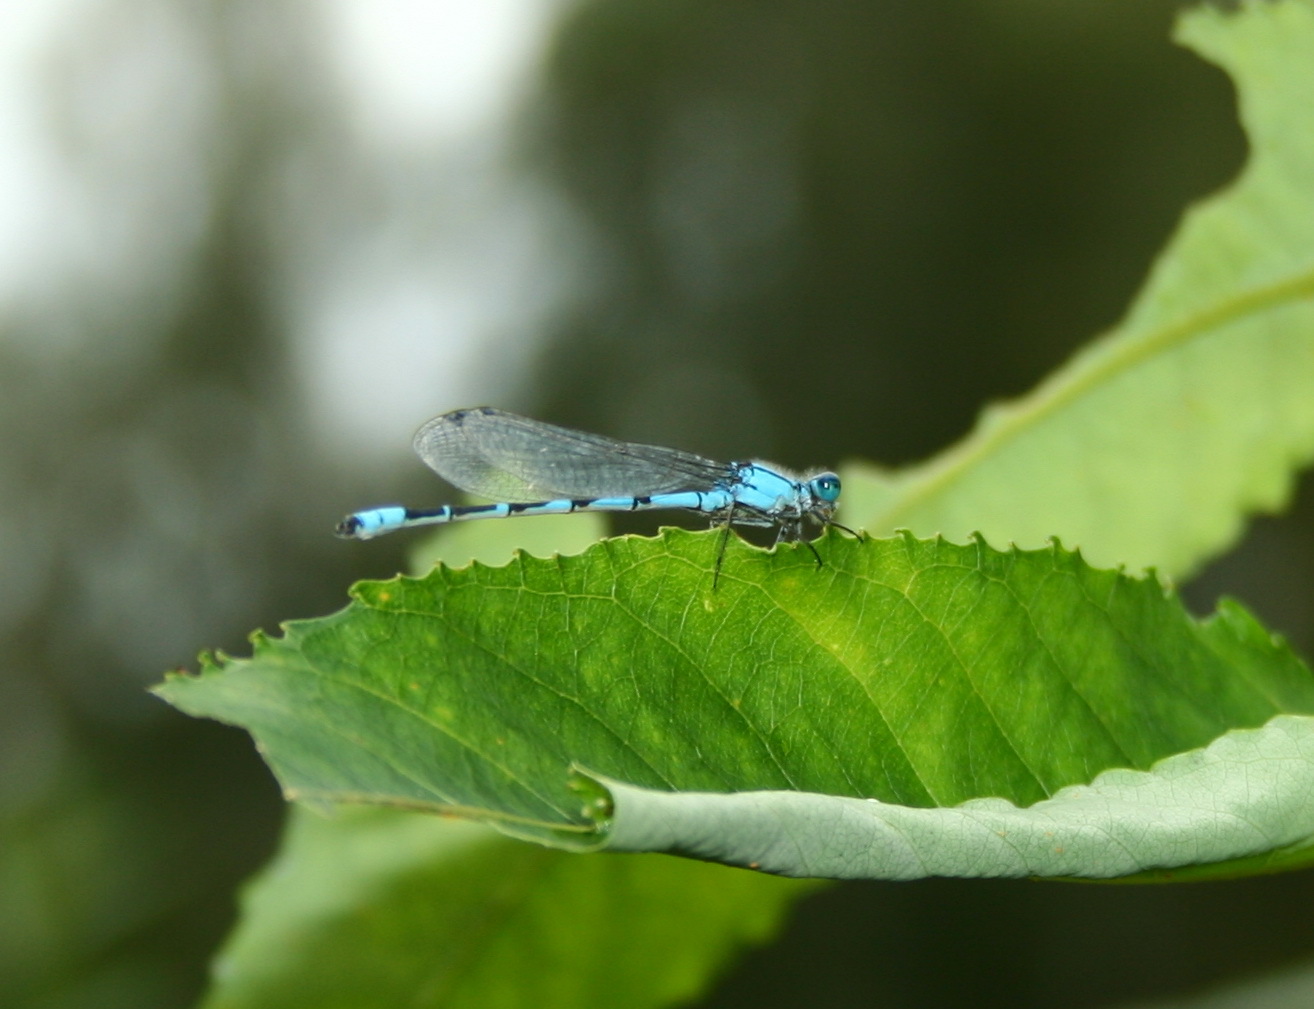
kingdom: Animalia
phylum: Arthropoda
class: Insecta
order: Odonata
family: Coenagrionidae
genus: Enallagma
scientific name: Enallagma cyathigerum
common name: Common blue damselfly
